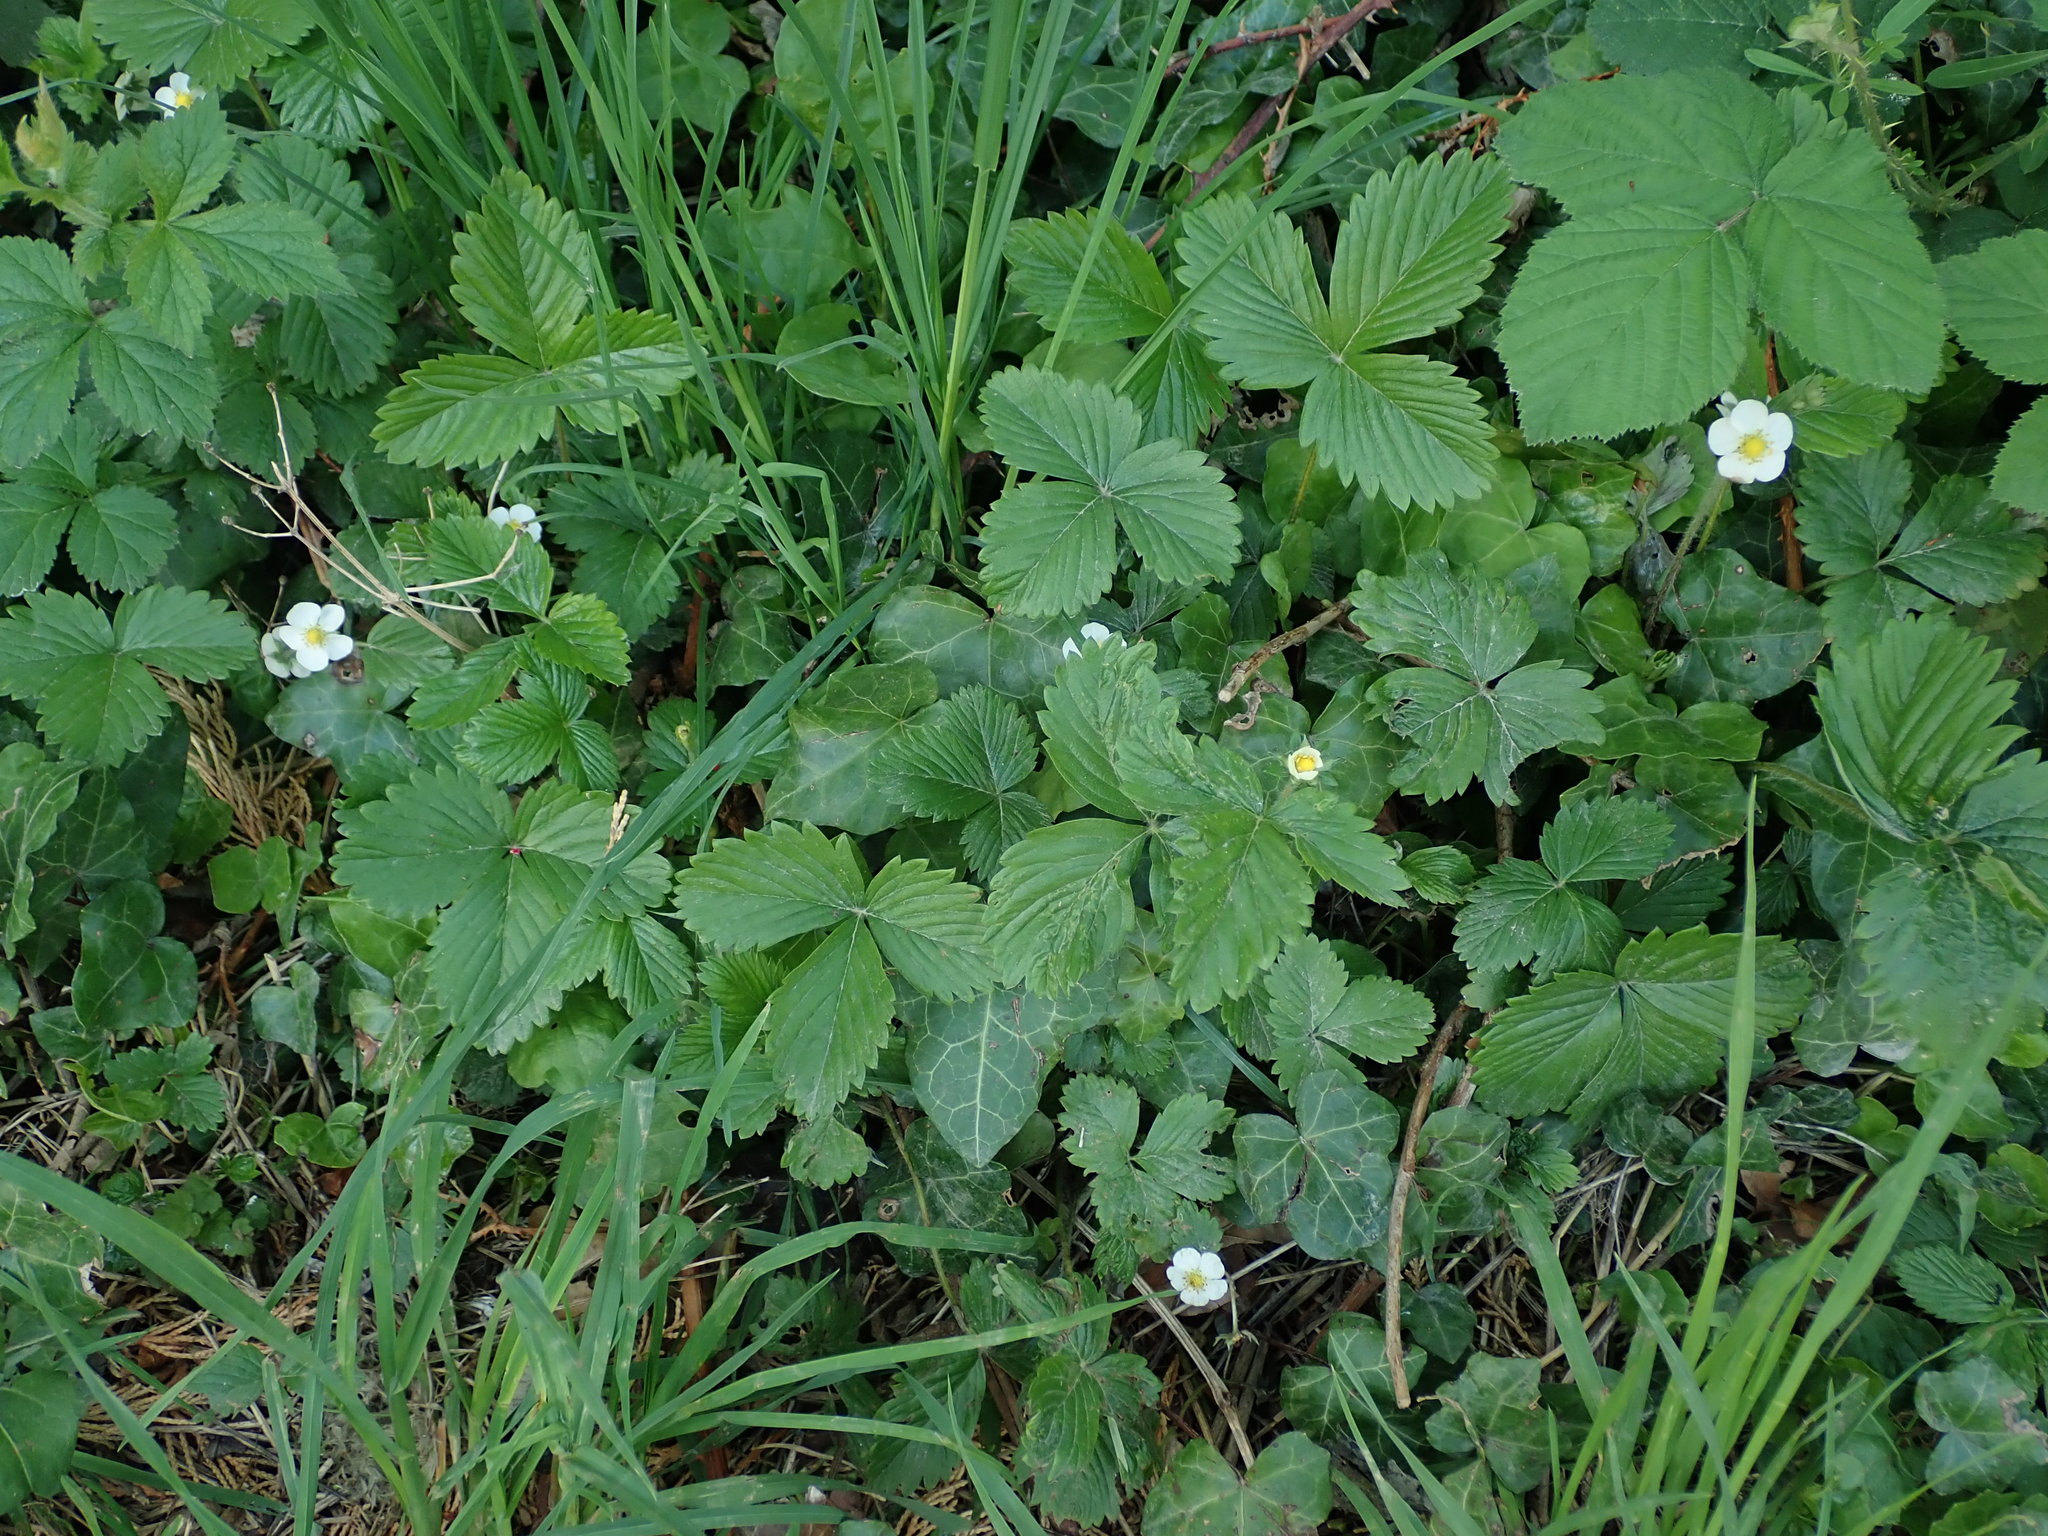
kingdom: Plantae
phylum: Tracheophyta
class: Magnoliopsida
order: Rosales
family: Rosaceae
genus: Fragaria
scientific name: Fragaria vesca
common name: Wild strawberry
